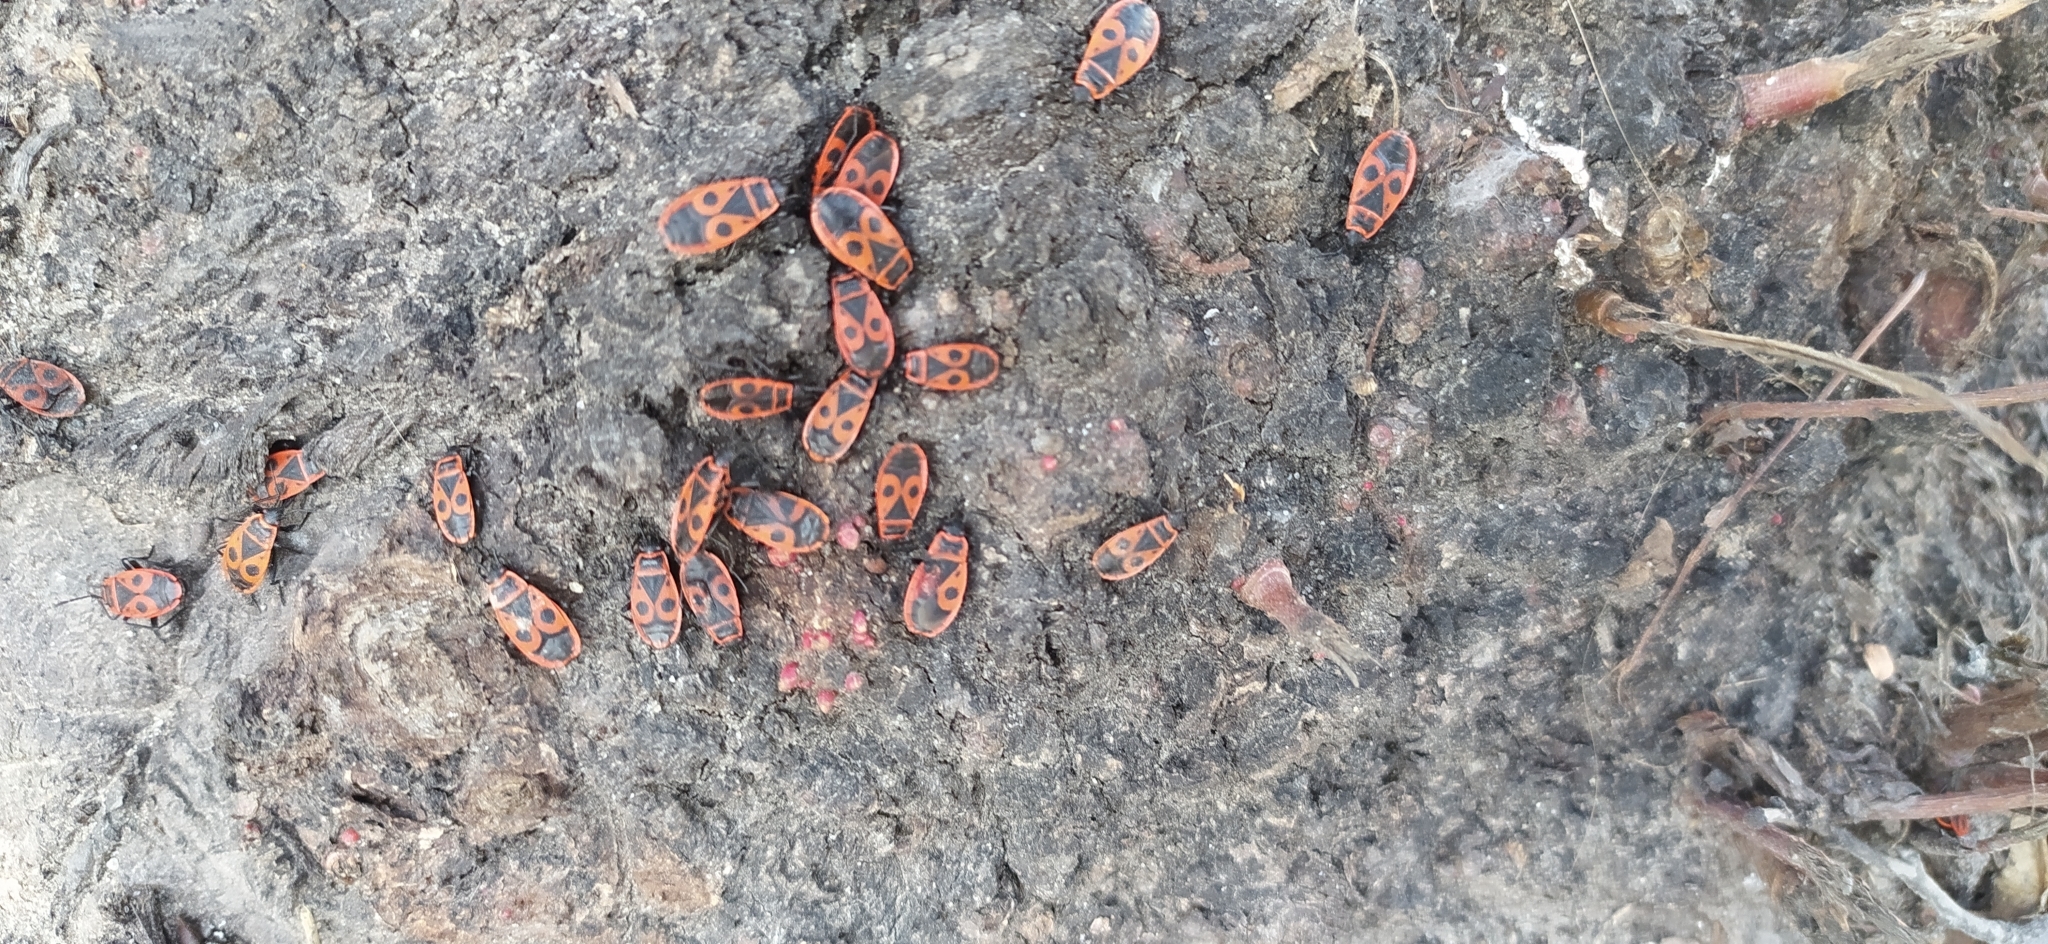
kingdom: Animalia
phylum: Arthropoda
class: Insecta
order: Hemiptera
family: Pyrrhocoridae
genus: Pyrrhocoris
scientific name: Pyrrhocoris apterus
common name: Firebug
